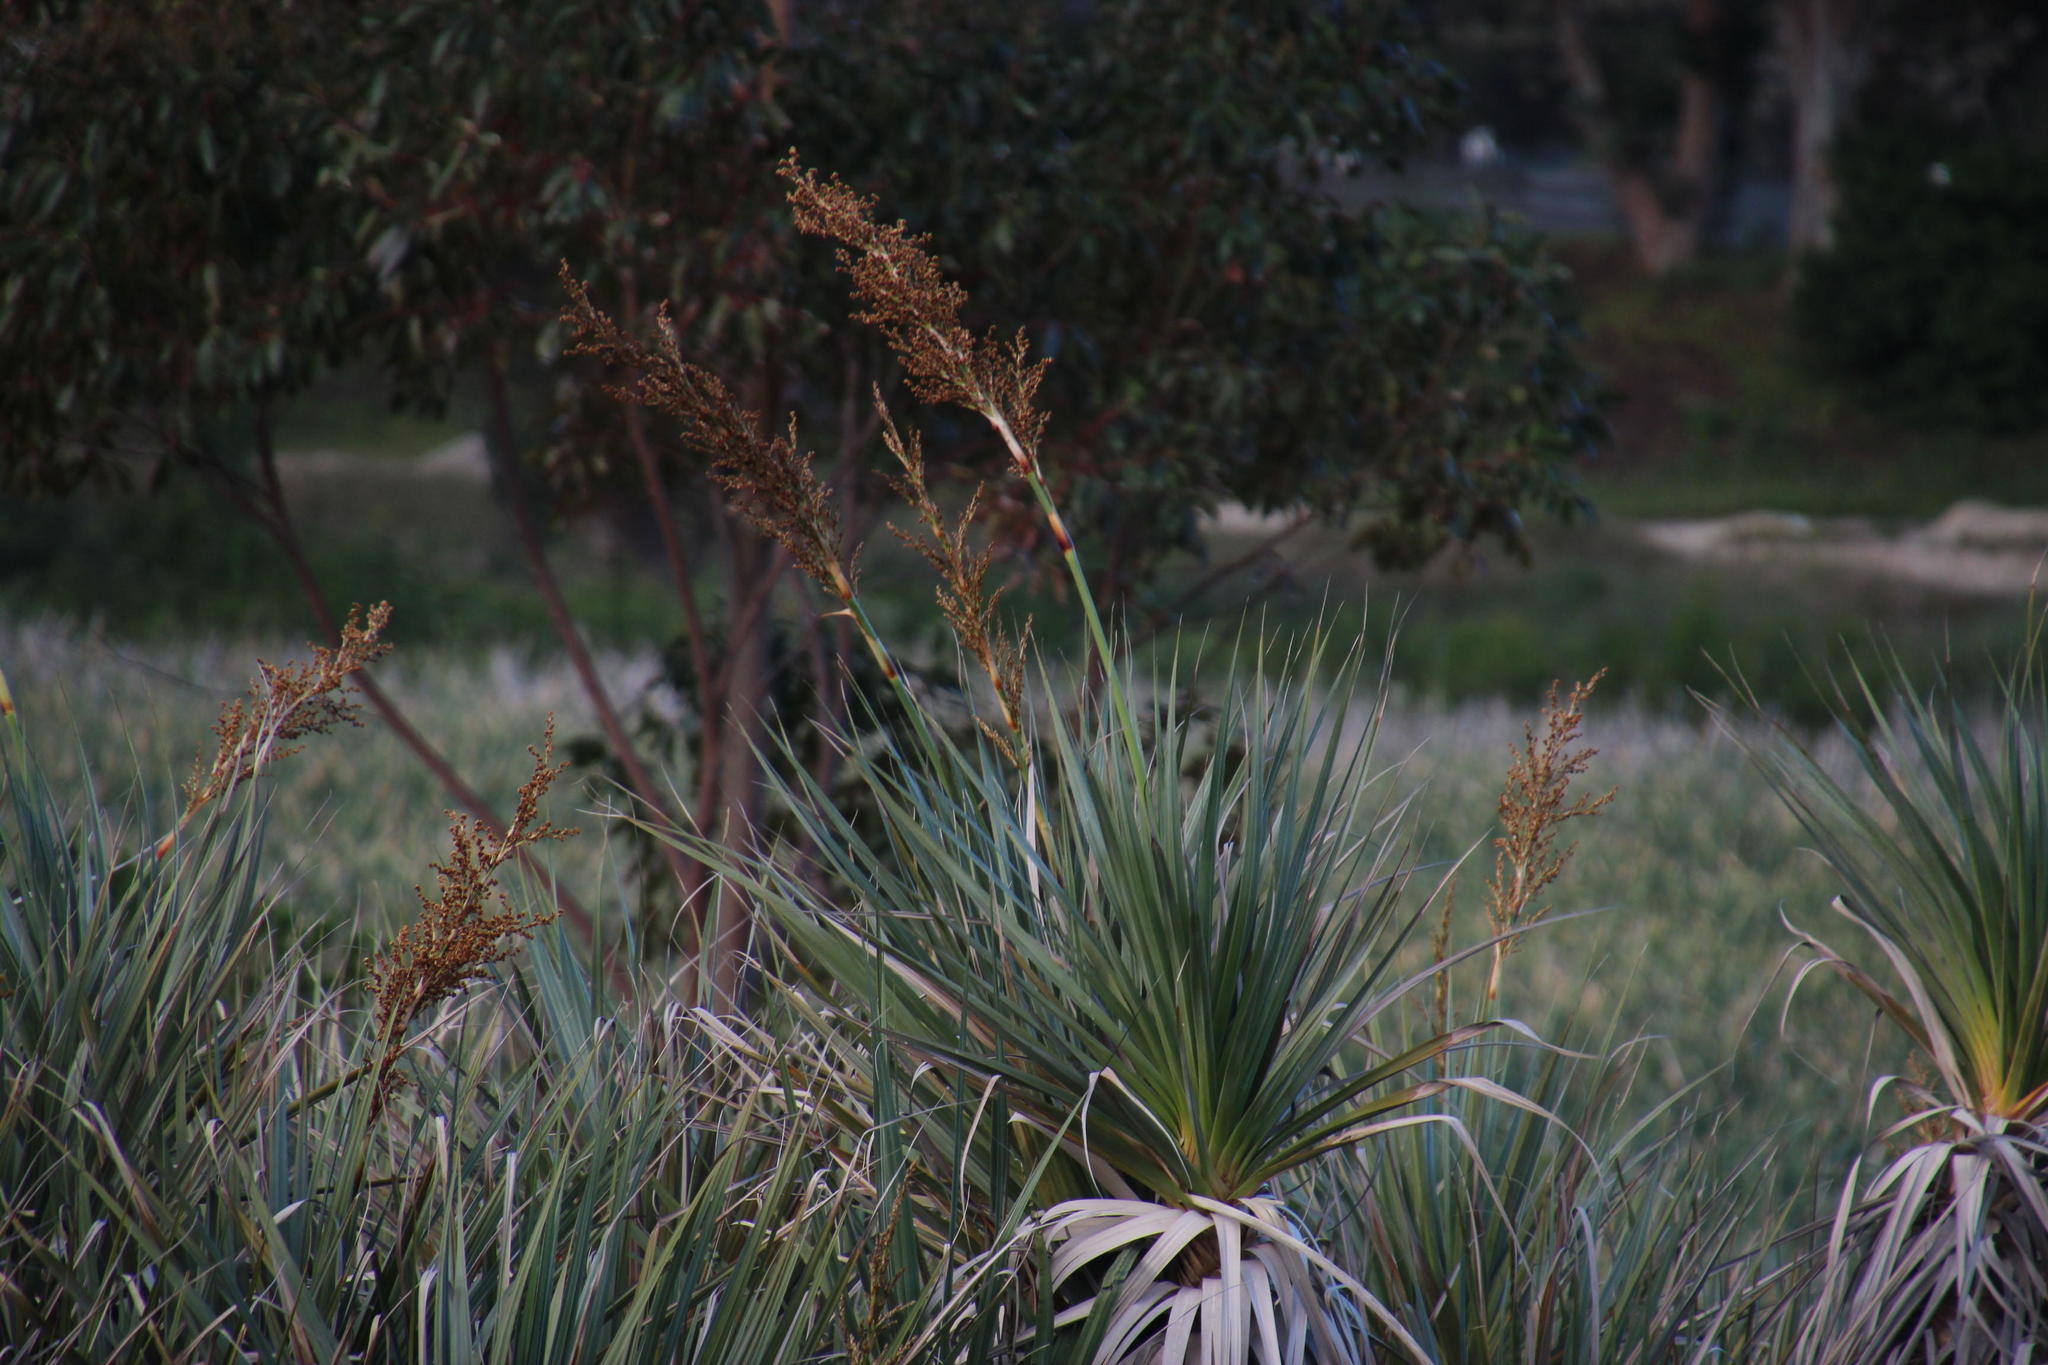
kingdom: Plantae
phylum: Tracheophyta
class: Liliopsida
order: Poales
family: Thurniaceae
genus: Prionium
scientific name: Prionium serratum
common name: Palmiet
